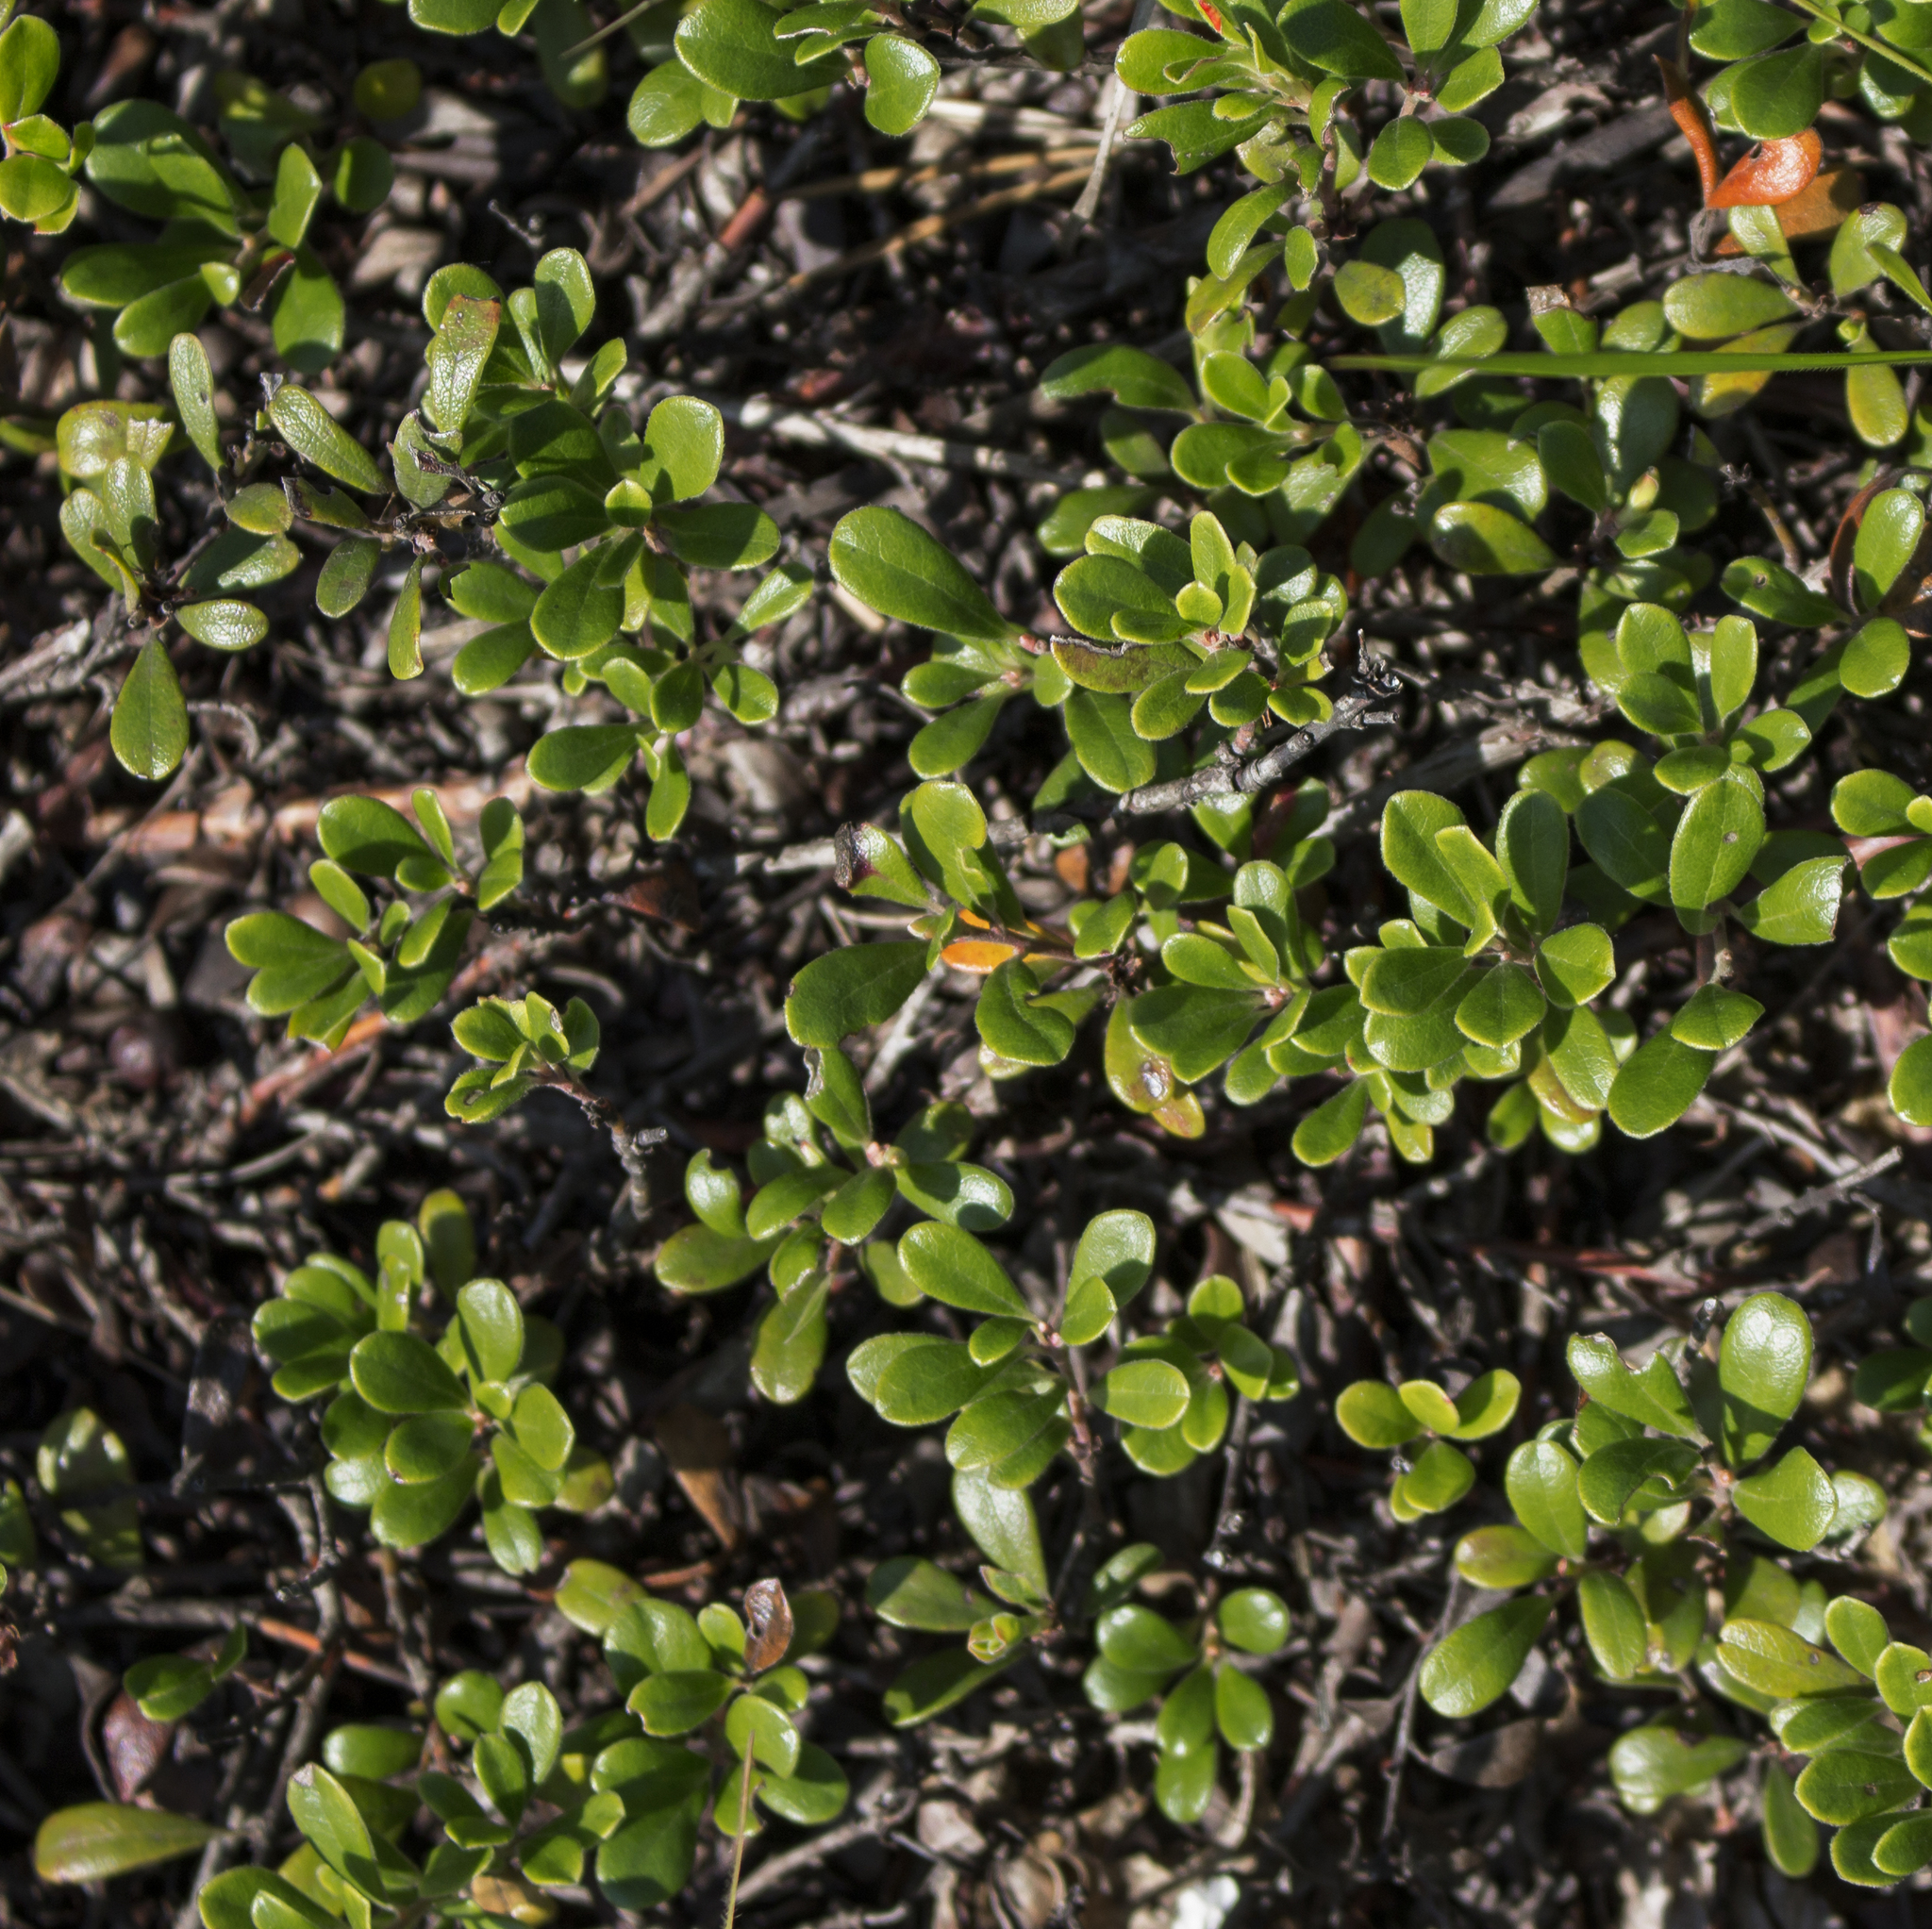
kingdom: Plantae
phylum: Tracheophyta
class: Magnoliopsida
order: Ericales
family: Ericaceae
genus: Arctostaphylos
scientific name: Arctostaphylos uva-ursi
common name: Bearberry
